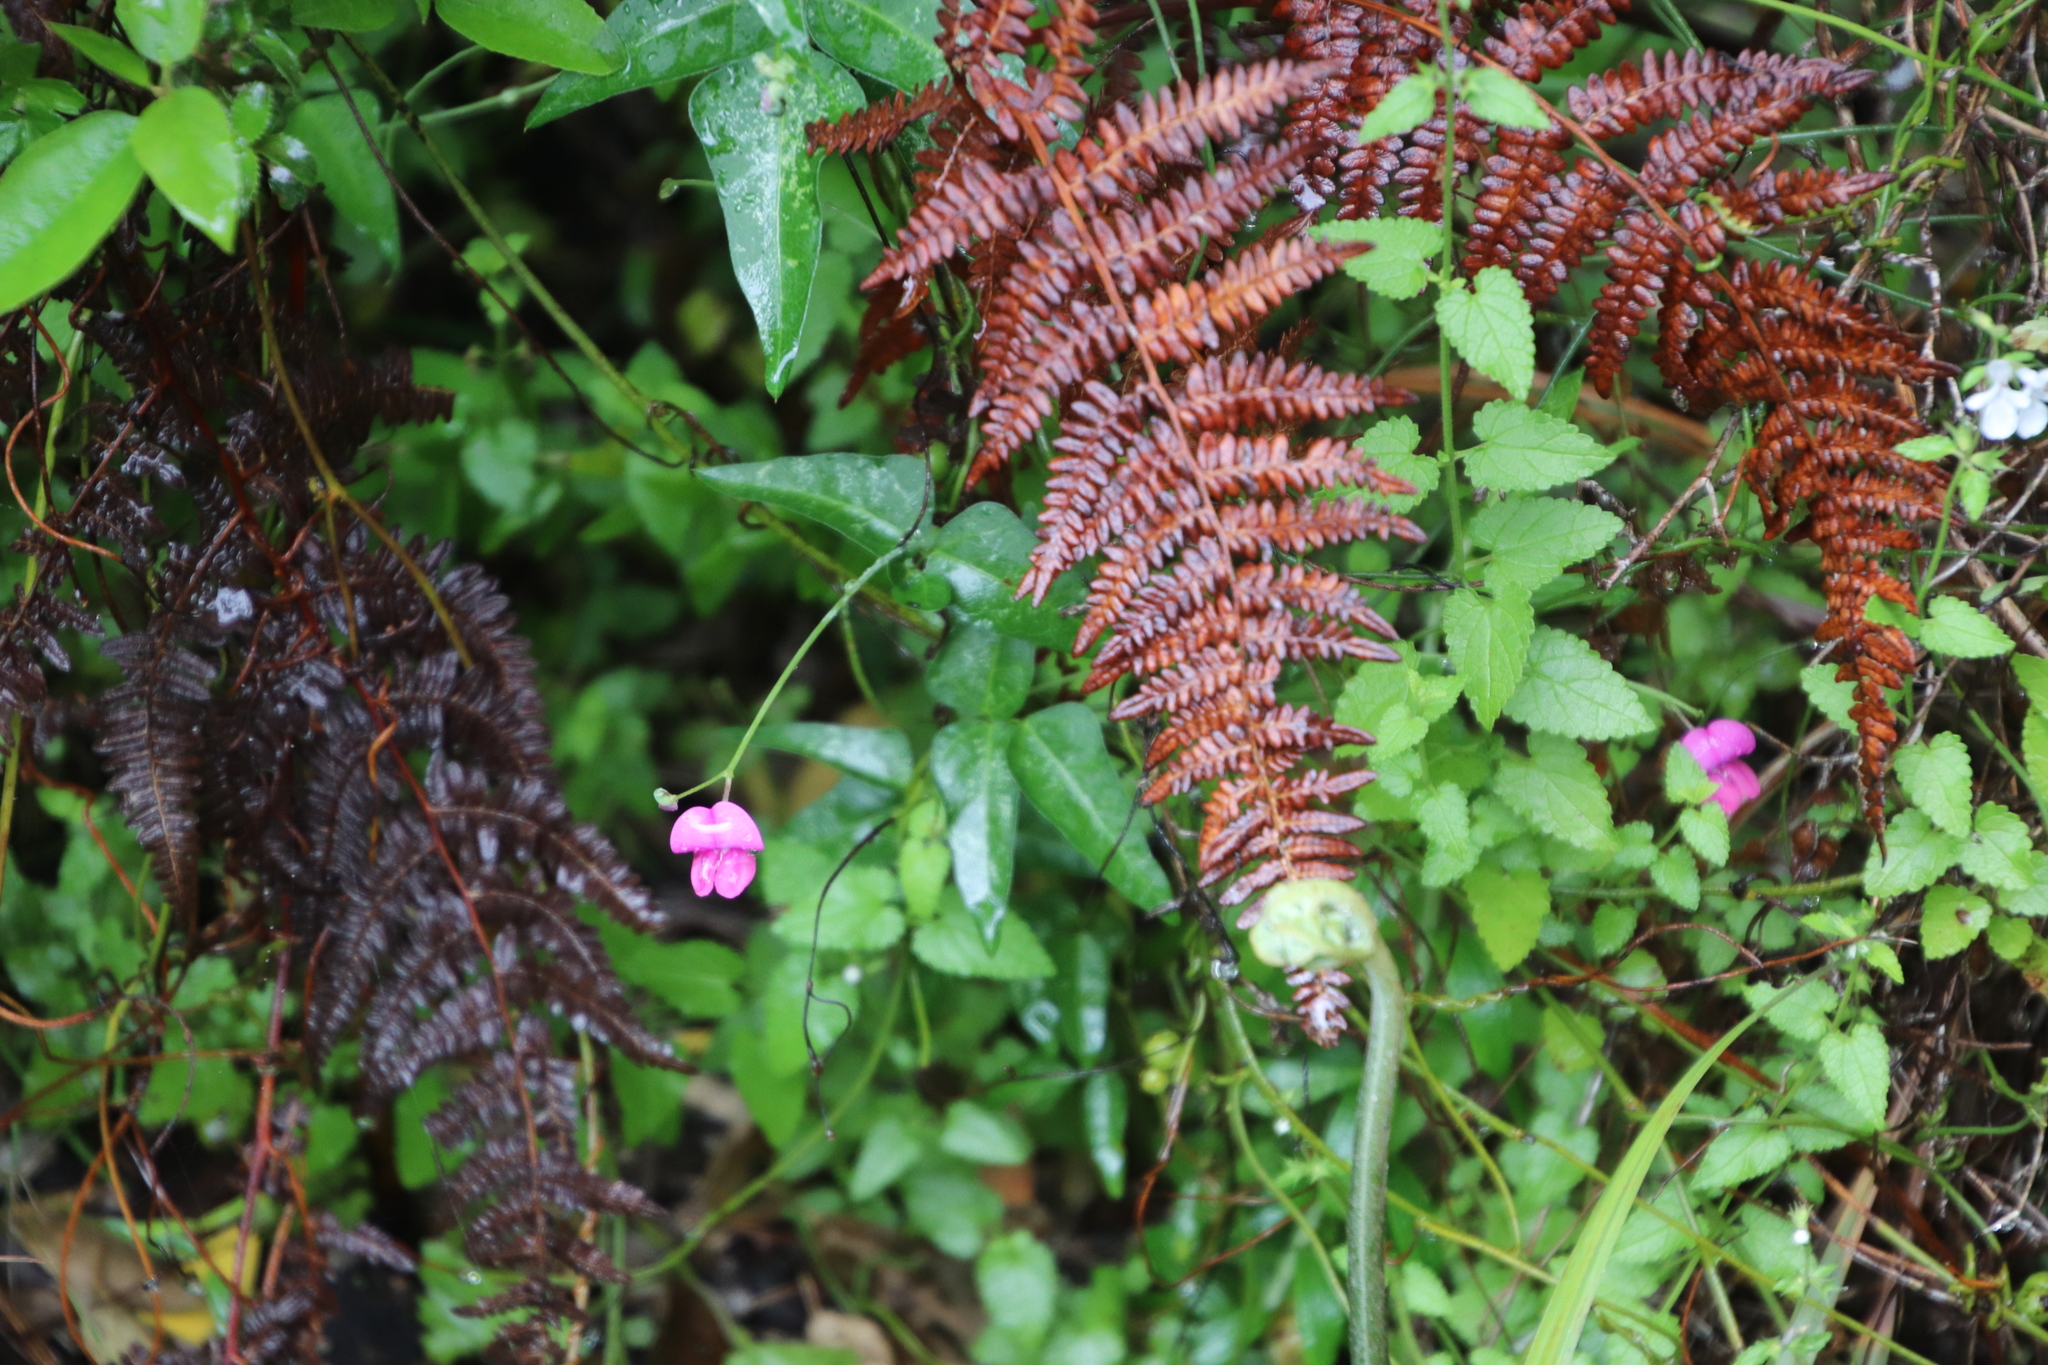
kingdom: Plantae
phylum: Tracheophyta
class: Magnoliopsida
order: Fabales
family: Fabaceae
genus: Dipogon
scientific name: Dipogon lignosus
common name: Okie bean
